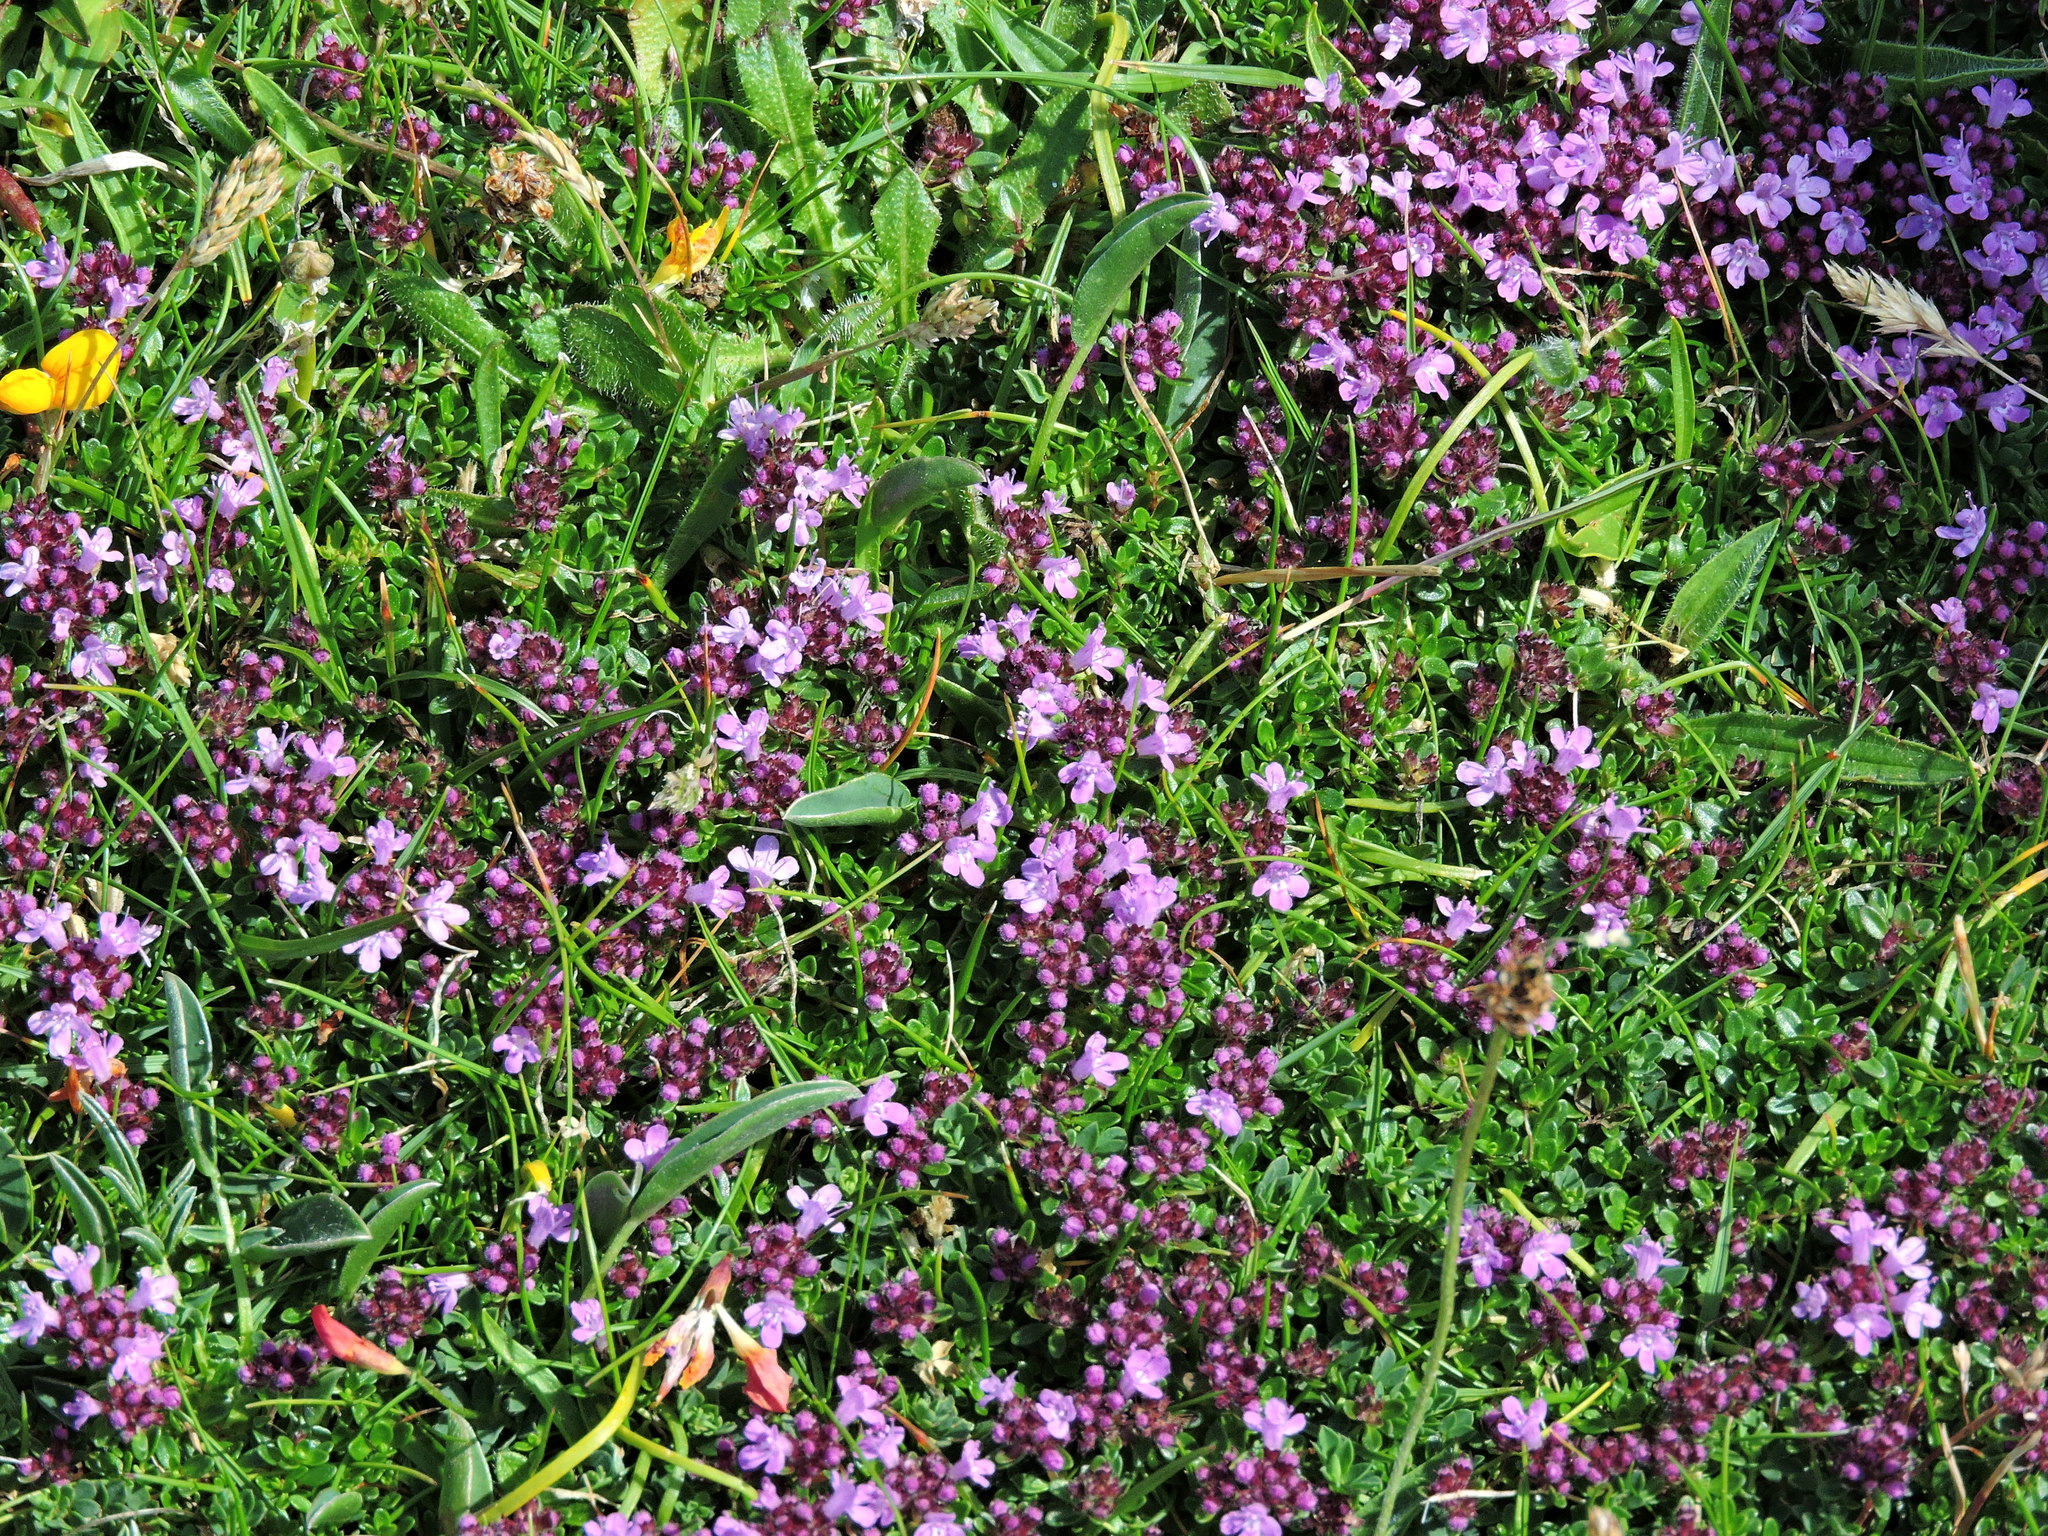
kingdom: Plantae
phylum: Tracheophyta
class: Magnoliopsida
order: Lamiales
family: Lamiaceae
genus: Thymus
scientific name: Thymus praecox
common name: Wild thyme
